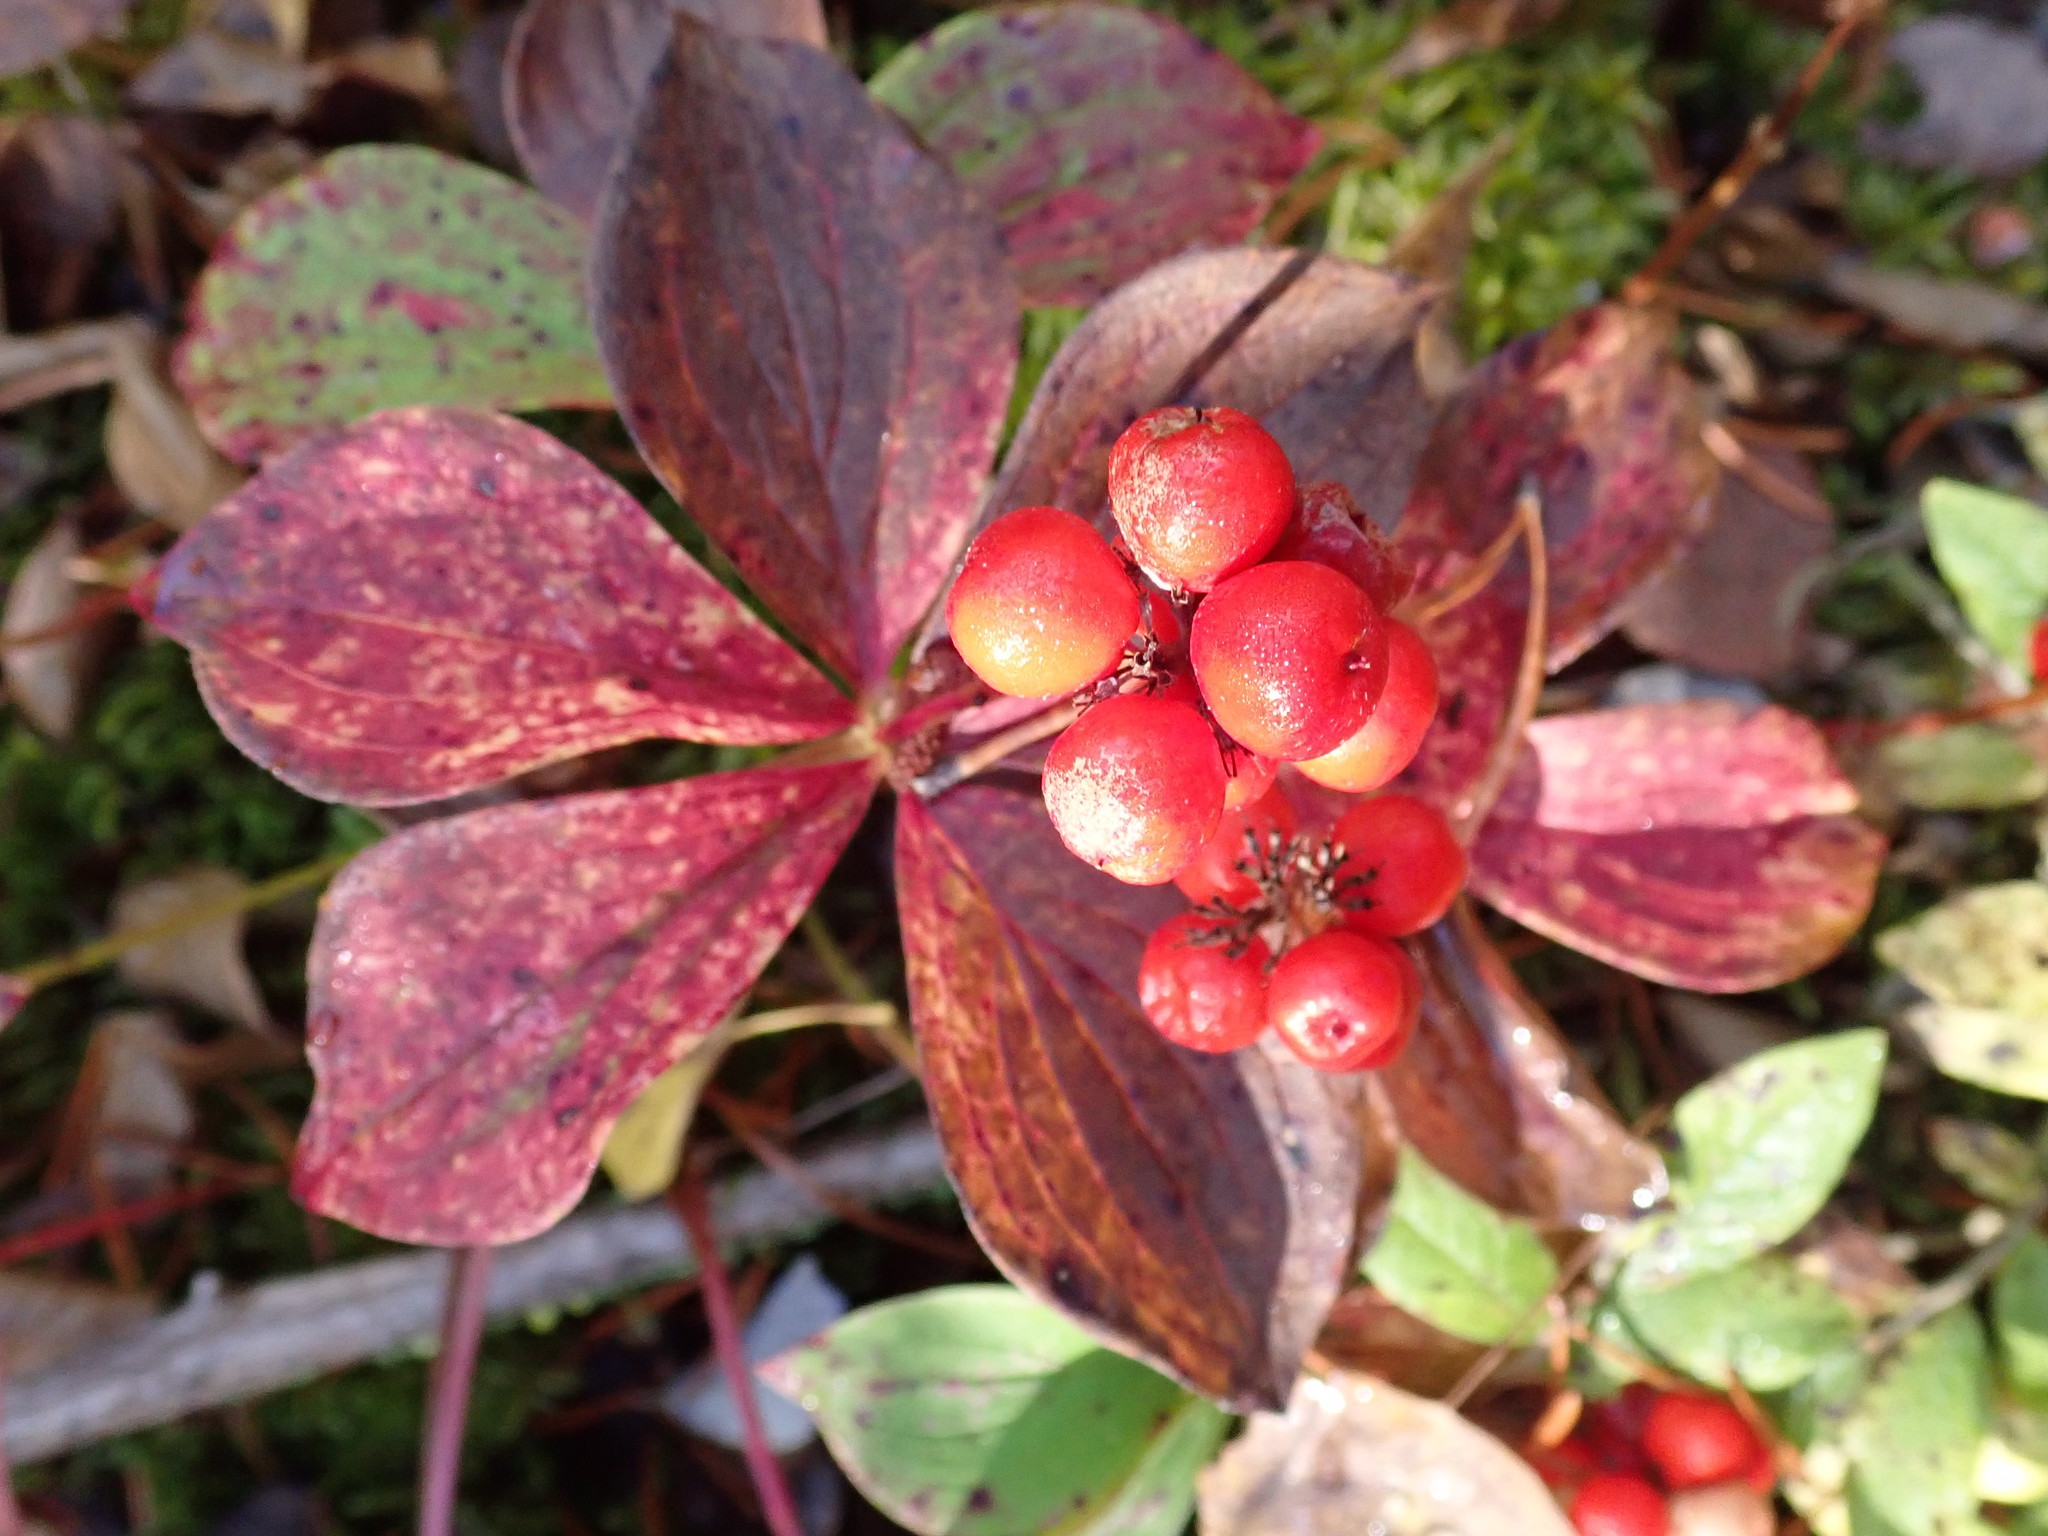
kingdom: Plantae
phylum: Tracheophyta
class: Magnoliopsida
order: Cornales
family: Cornaceae
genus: Cornus
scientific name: Cornus canadensis
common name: Creeping dogwood
